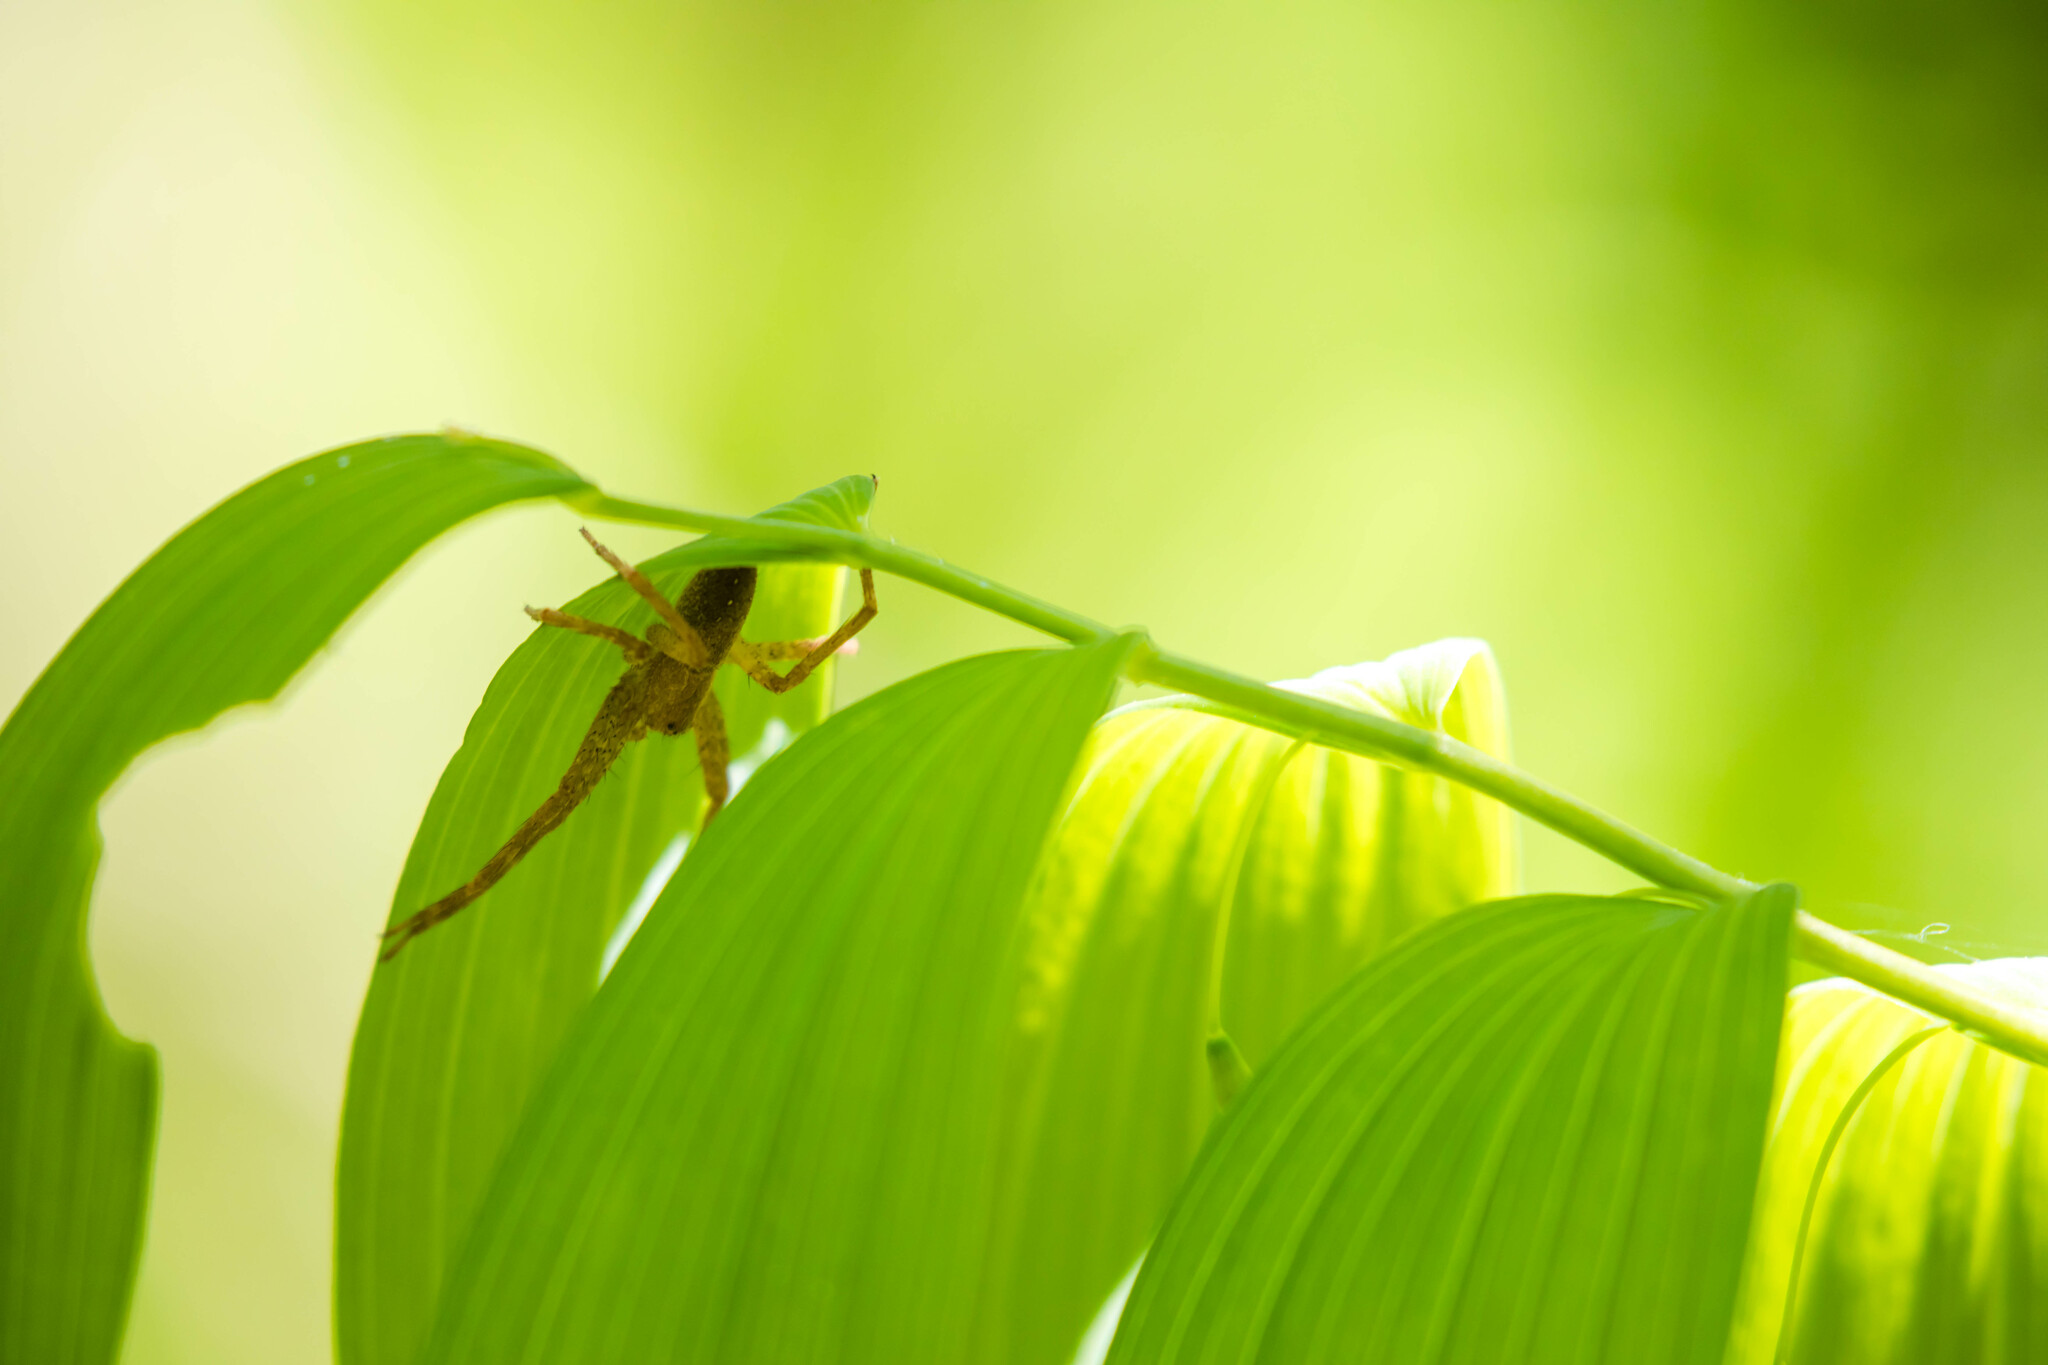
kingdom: Animalia
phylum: Arthropoda
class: Arachnida
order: Araneae
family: Pisauridae
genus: Pisaurina
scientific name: Pisaurina mira
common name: American nursery web spider
